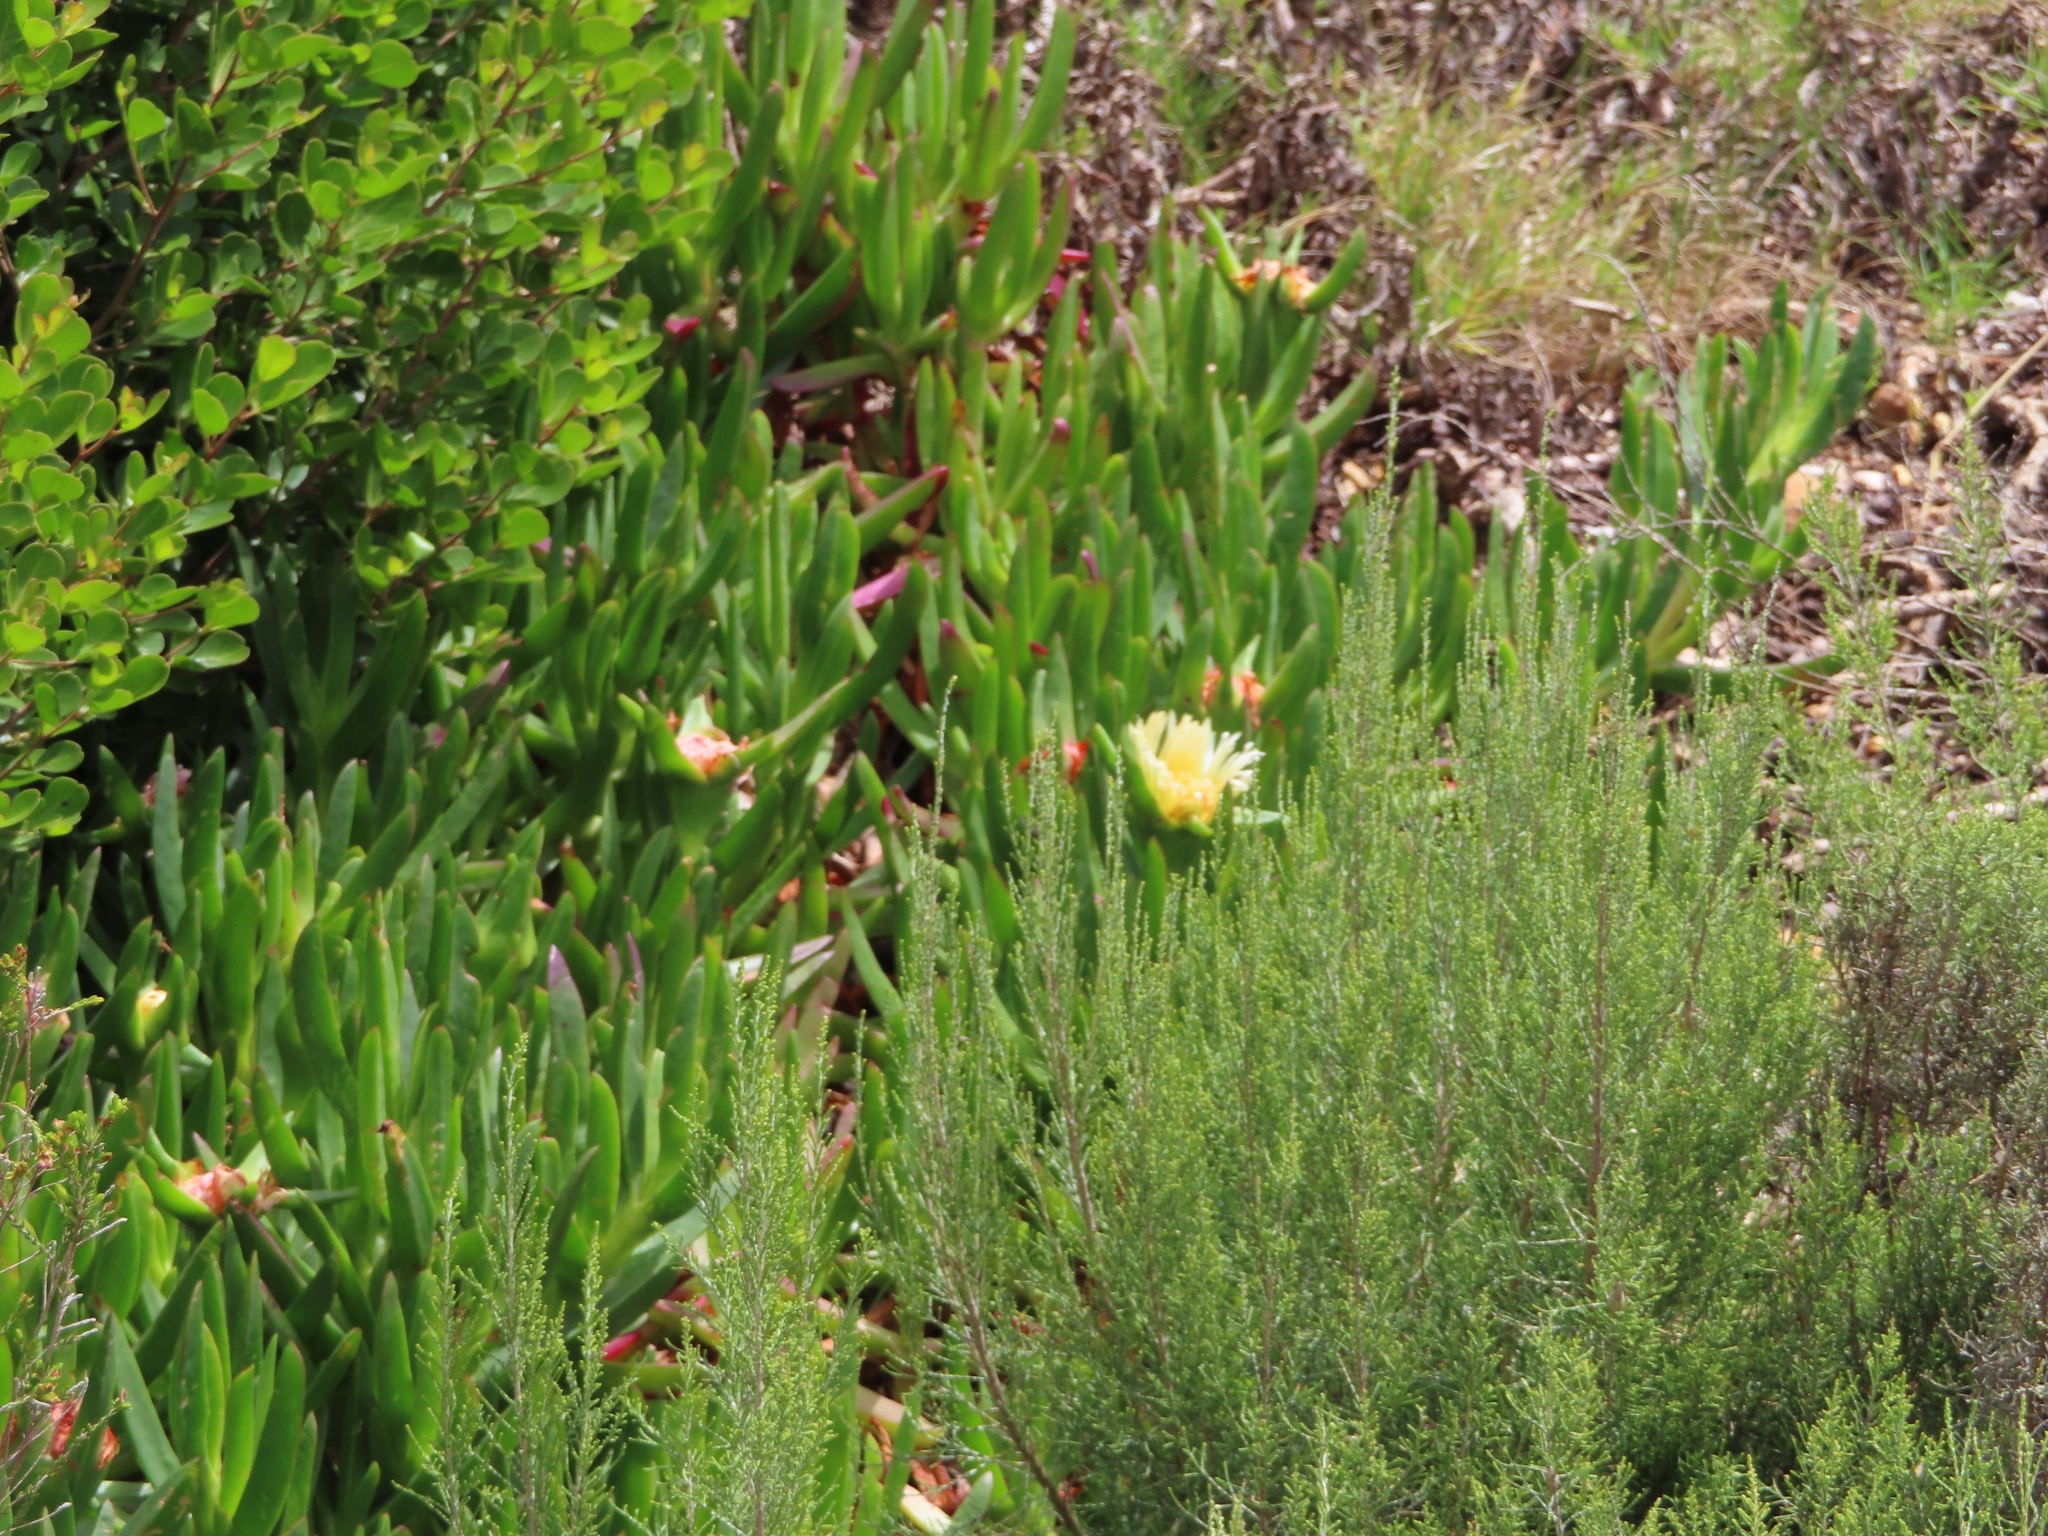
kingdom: Plantae
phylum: Tracheophyta
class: Magnoliopsida
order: Caryophyllales
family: Aizoaceae
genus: Carpobrotus
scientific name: Carpobrotus edulis
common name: Hottentot-fig
